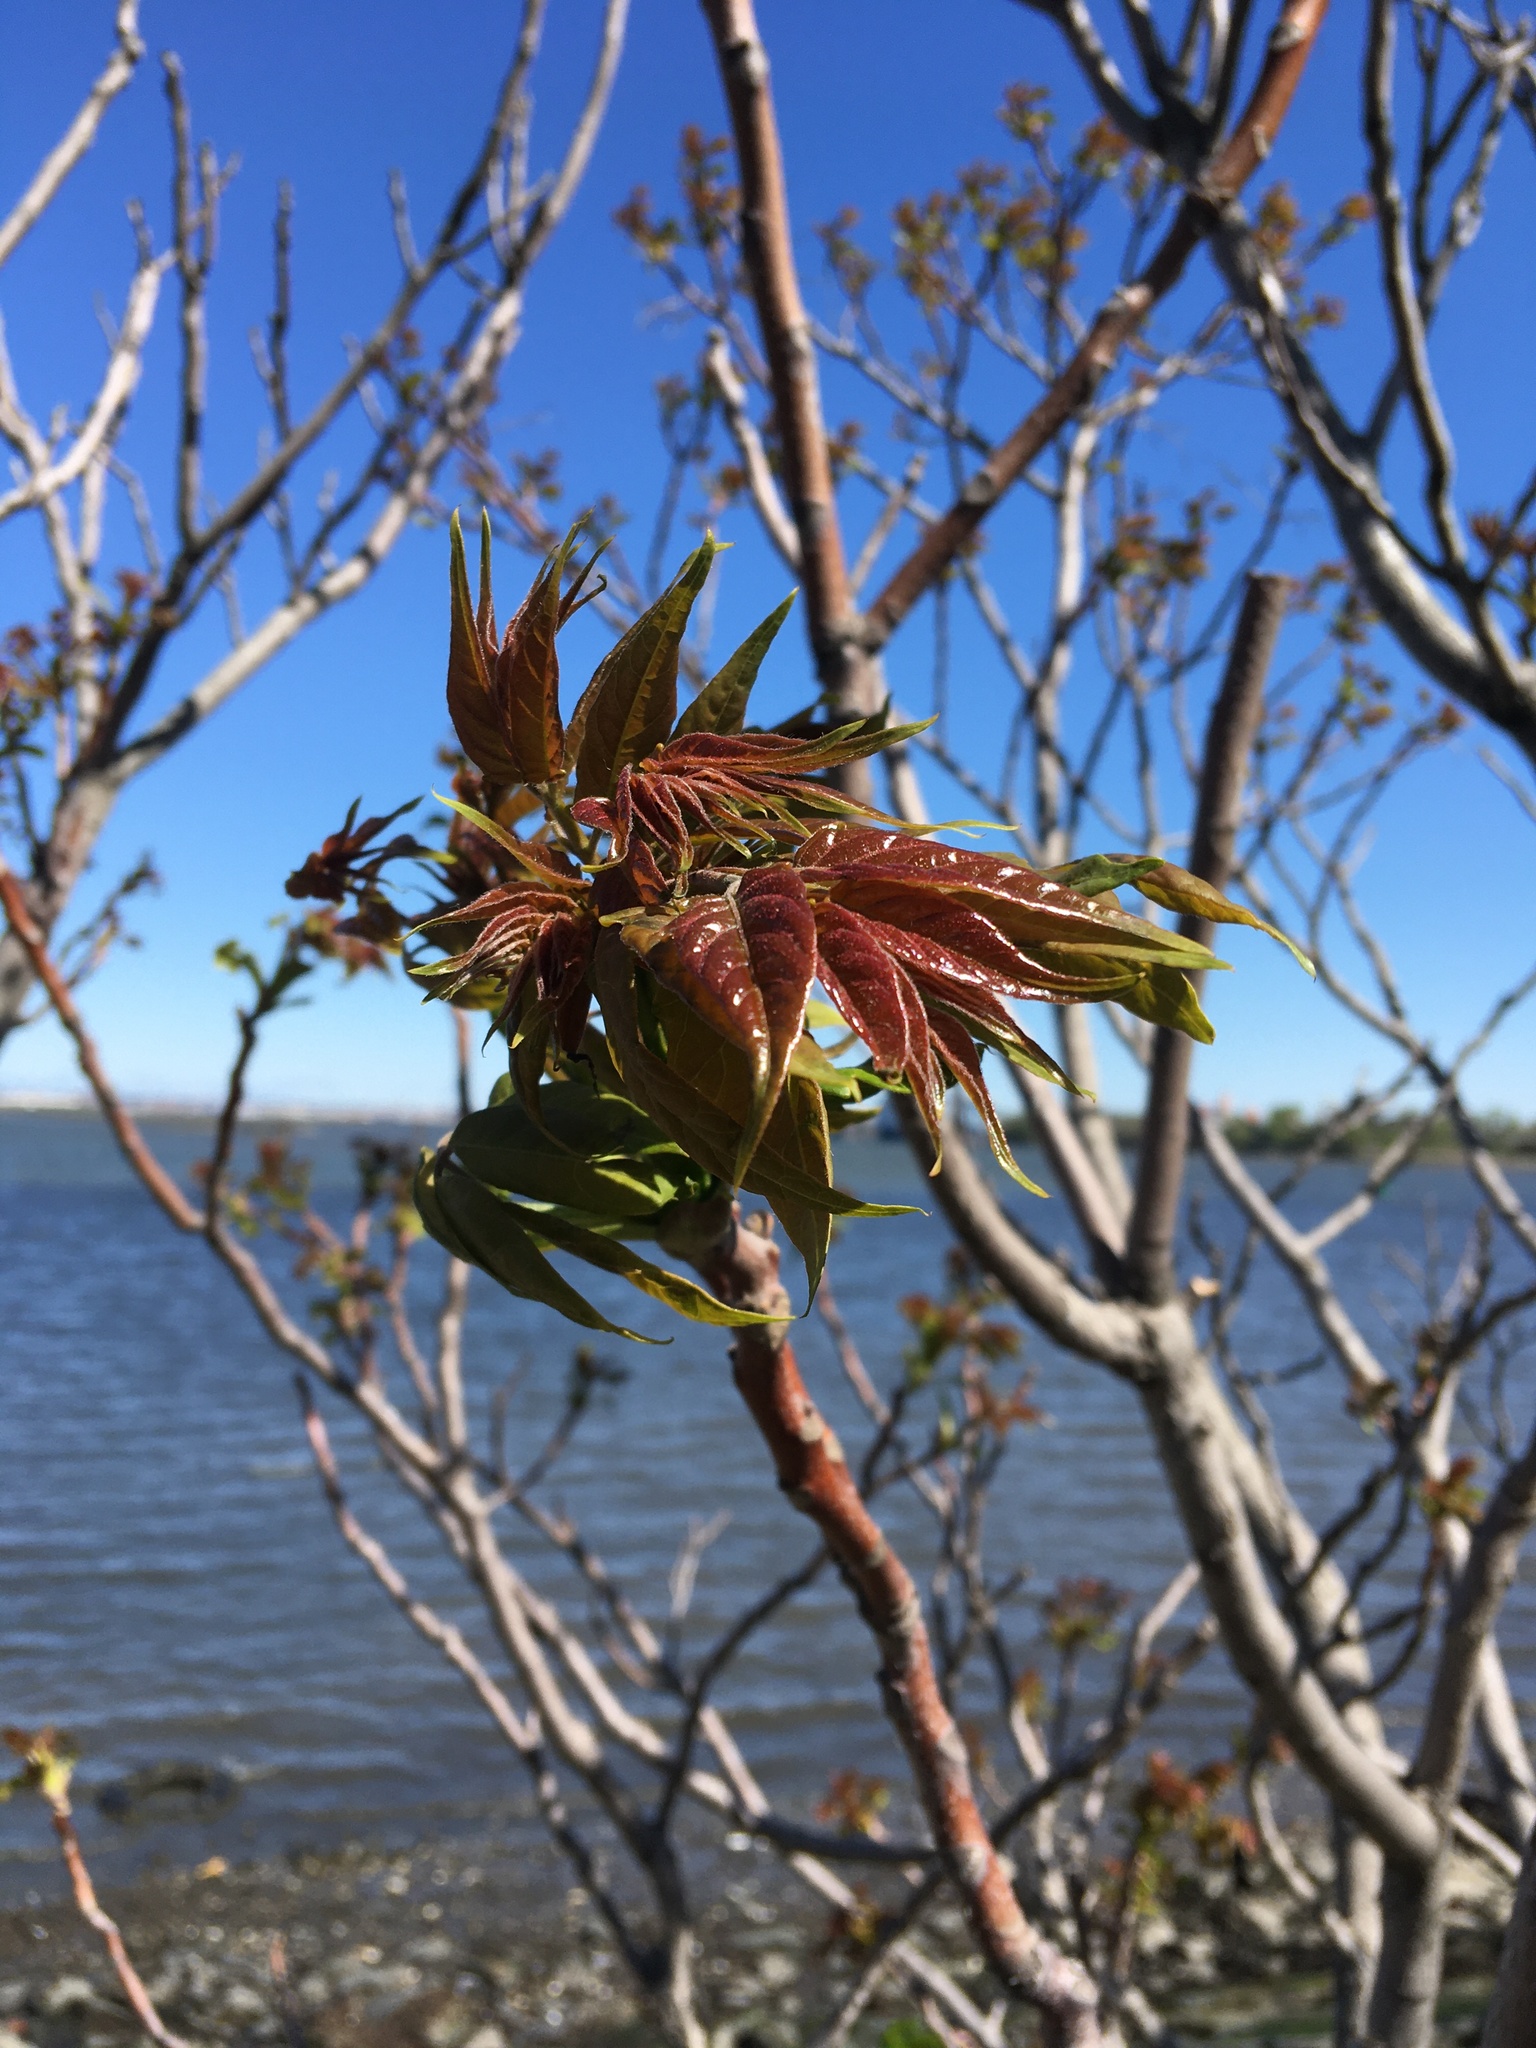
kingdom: Plantae
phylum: Tracheophyta
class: Magnoliopsida
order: Sapindales
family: Simaroubaceae
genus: Ailanthus
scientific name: Ailanthus altissima
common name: Tree-of-heaven
